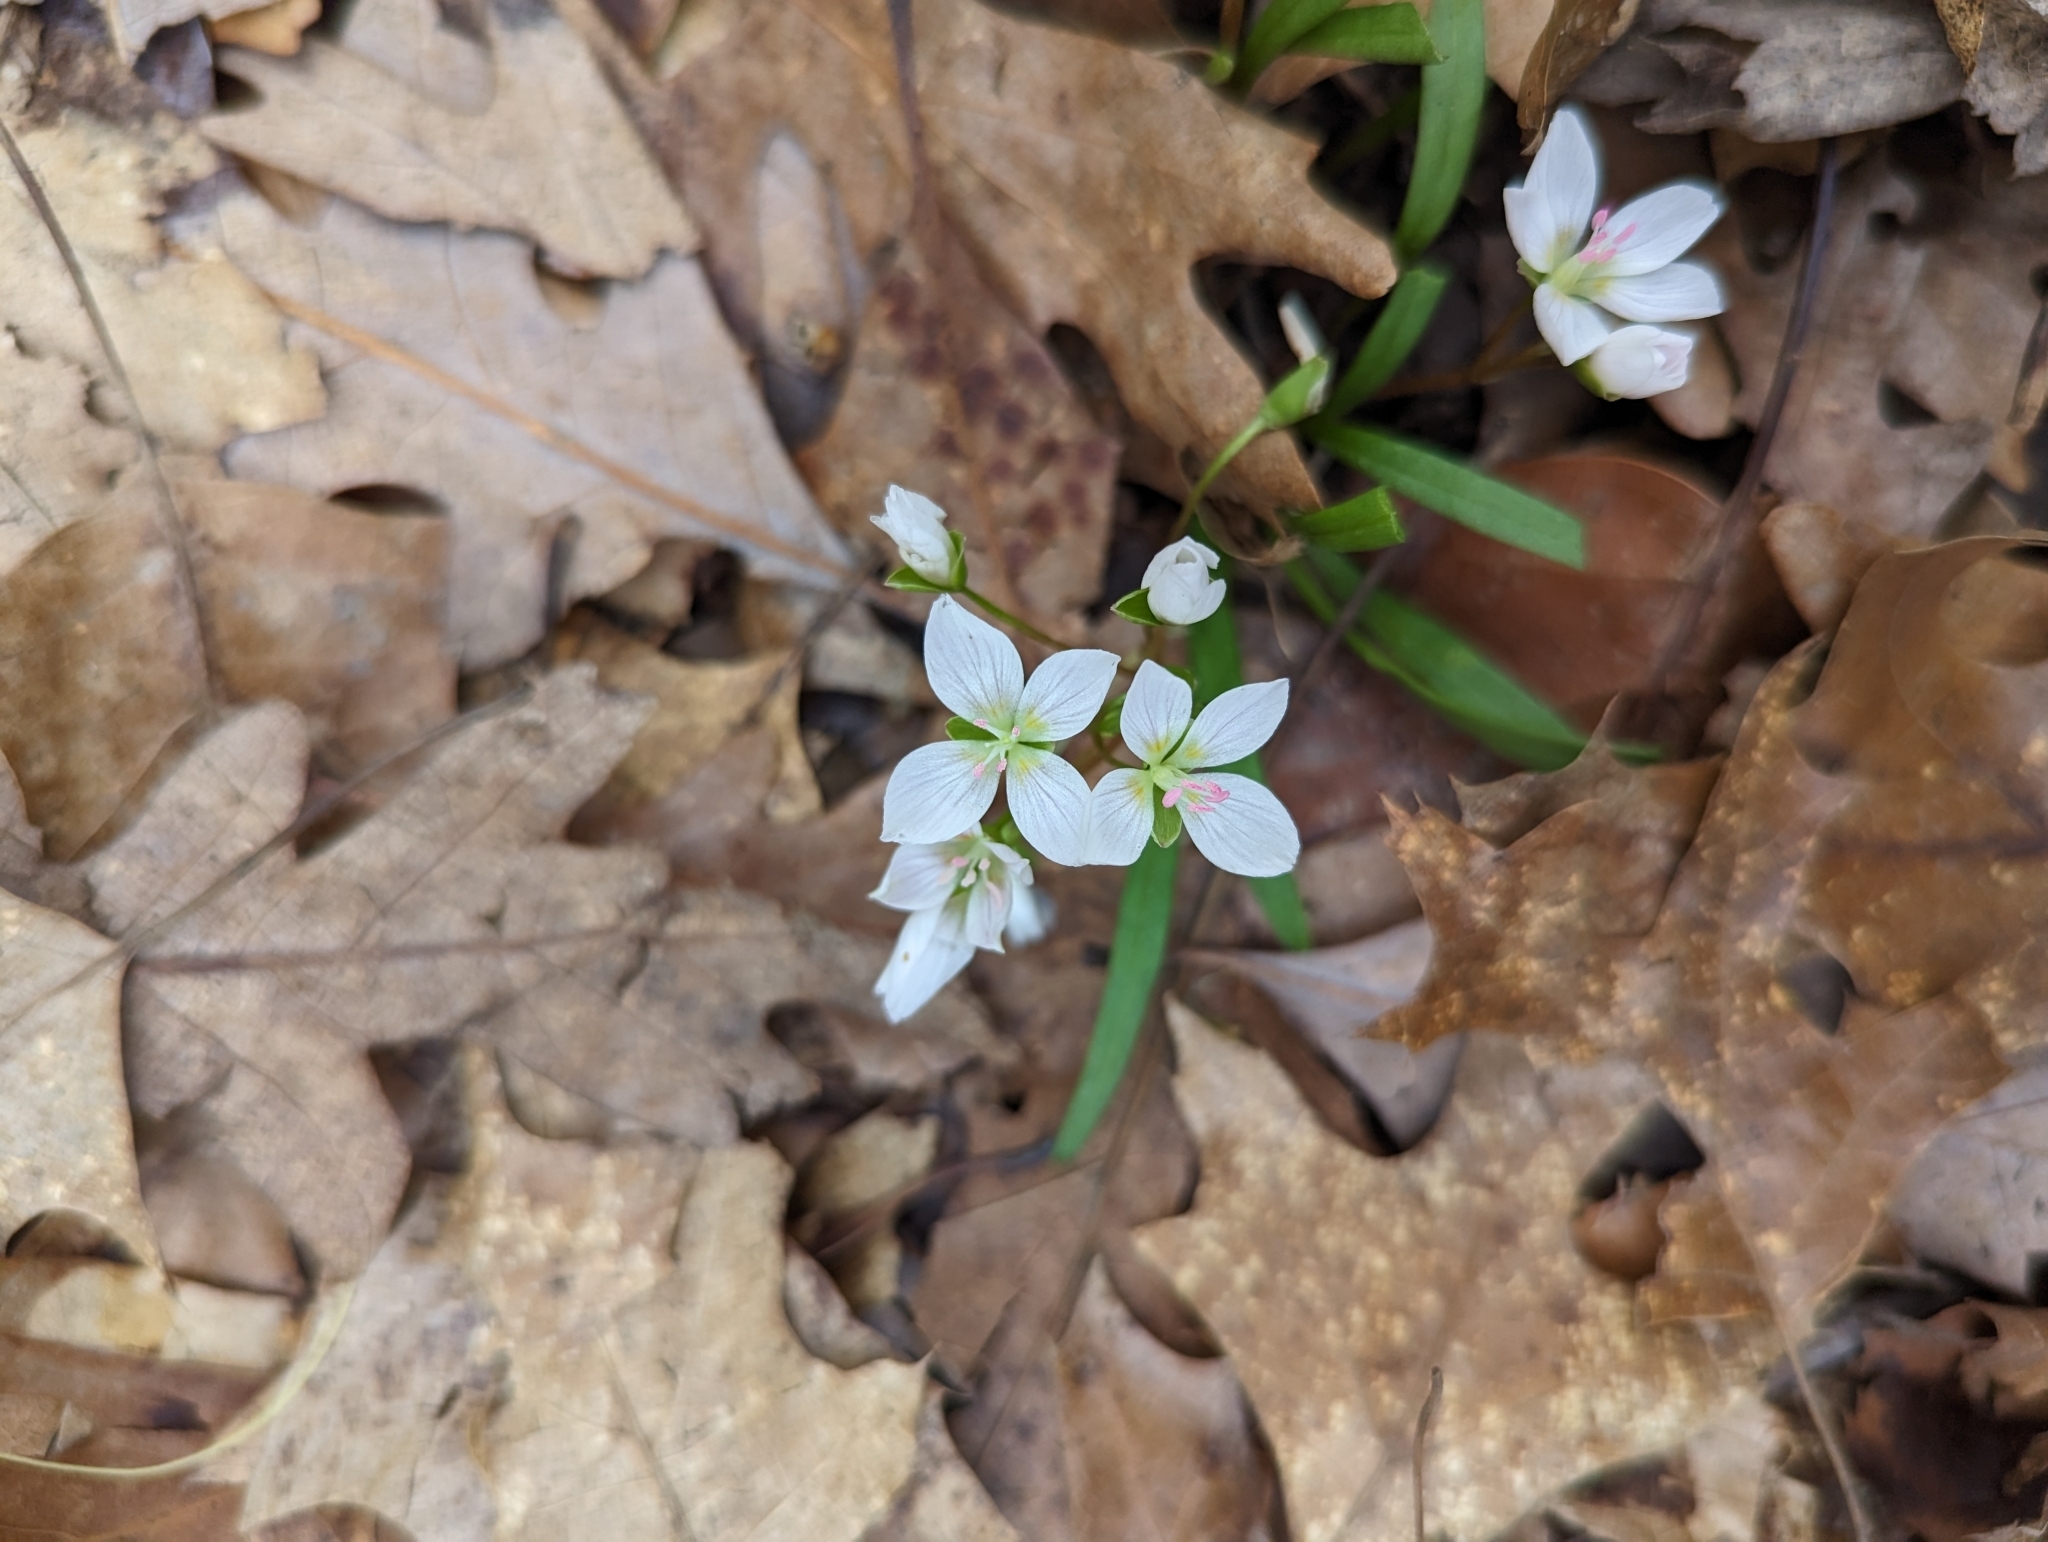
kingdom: Plantae
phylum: Tracheophyta
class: Magnoliopsida
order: Caryophyllales
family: Montiaceae
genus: Claytonia
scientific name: Claytonia virginica
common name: Virginia springbeauty
